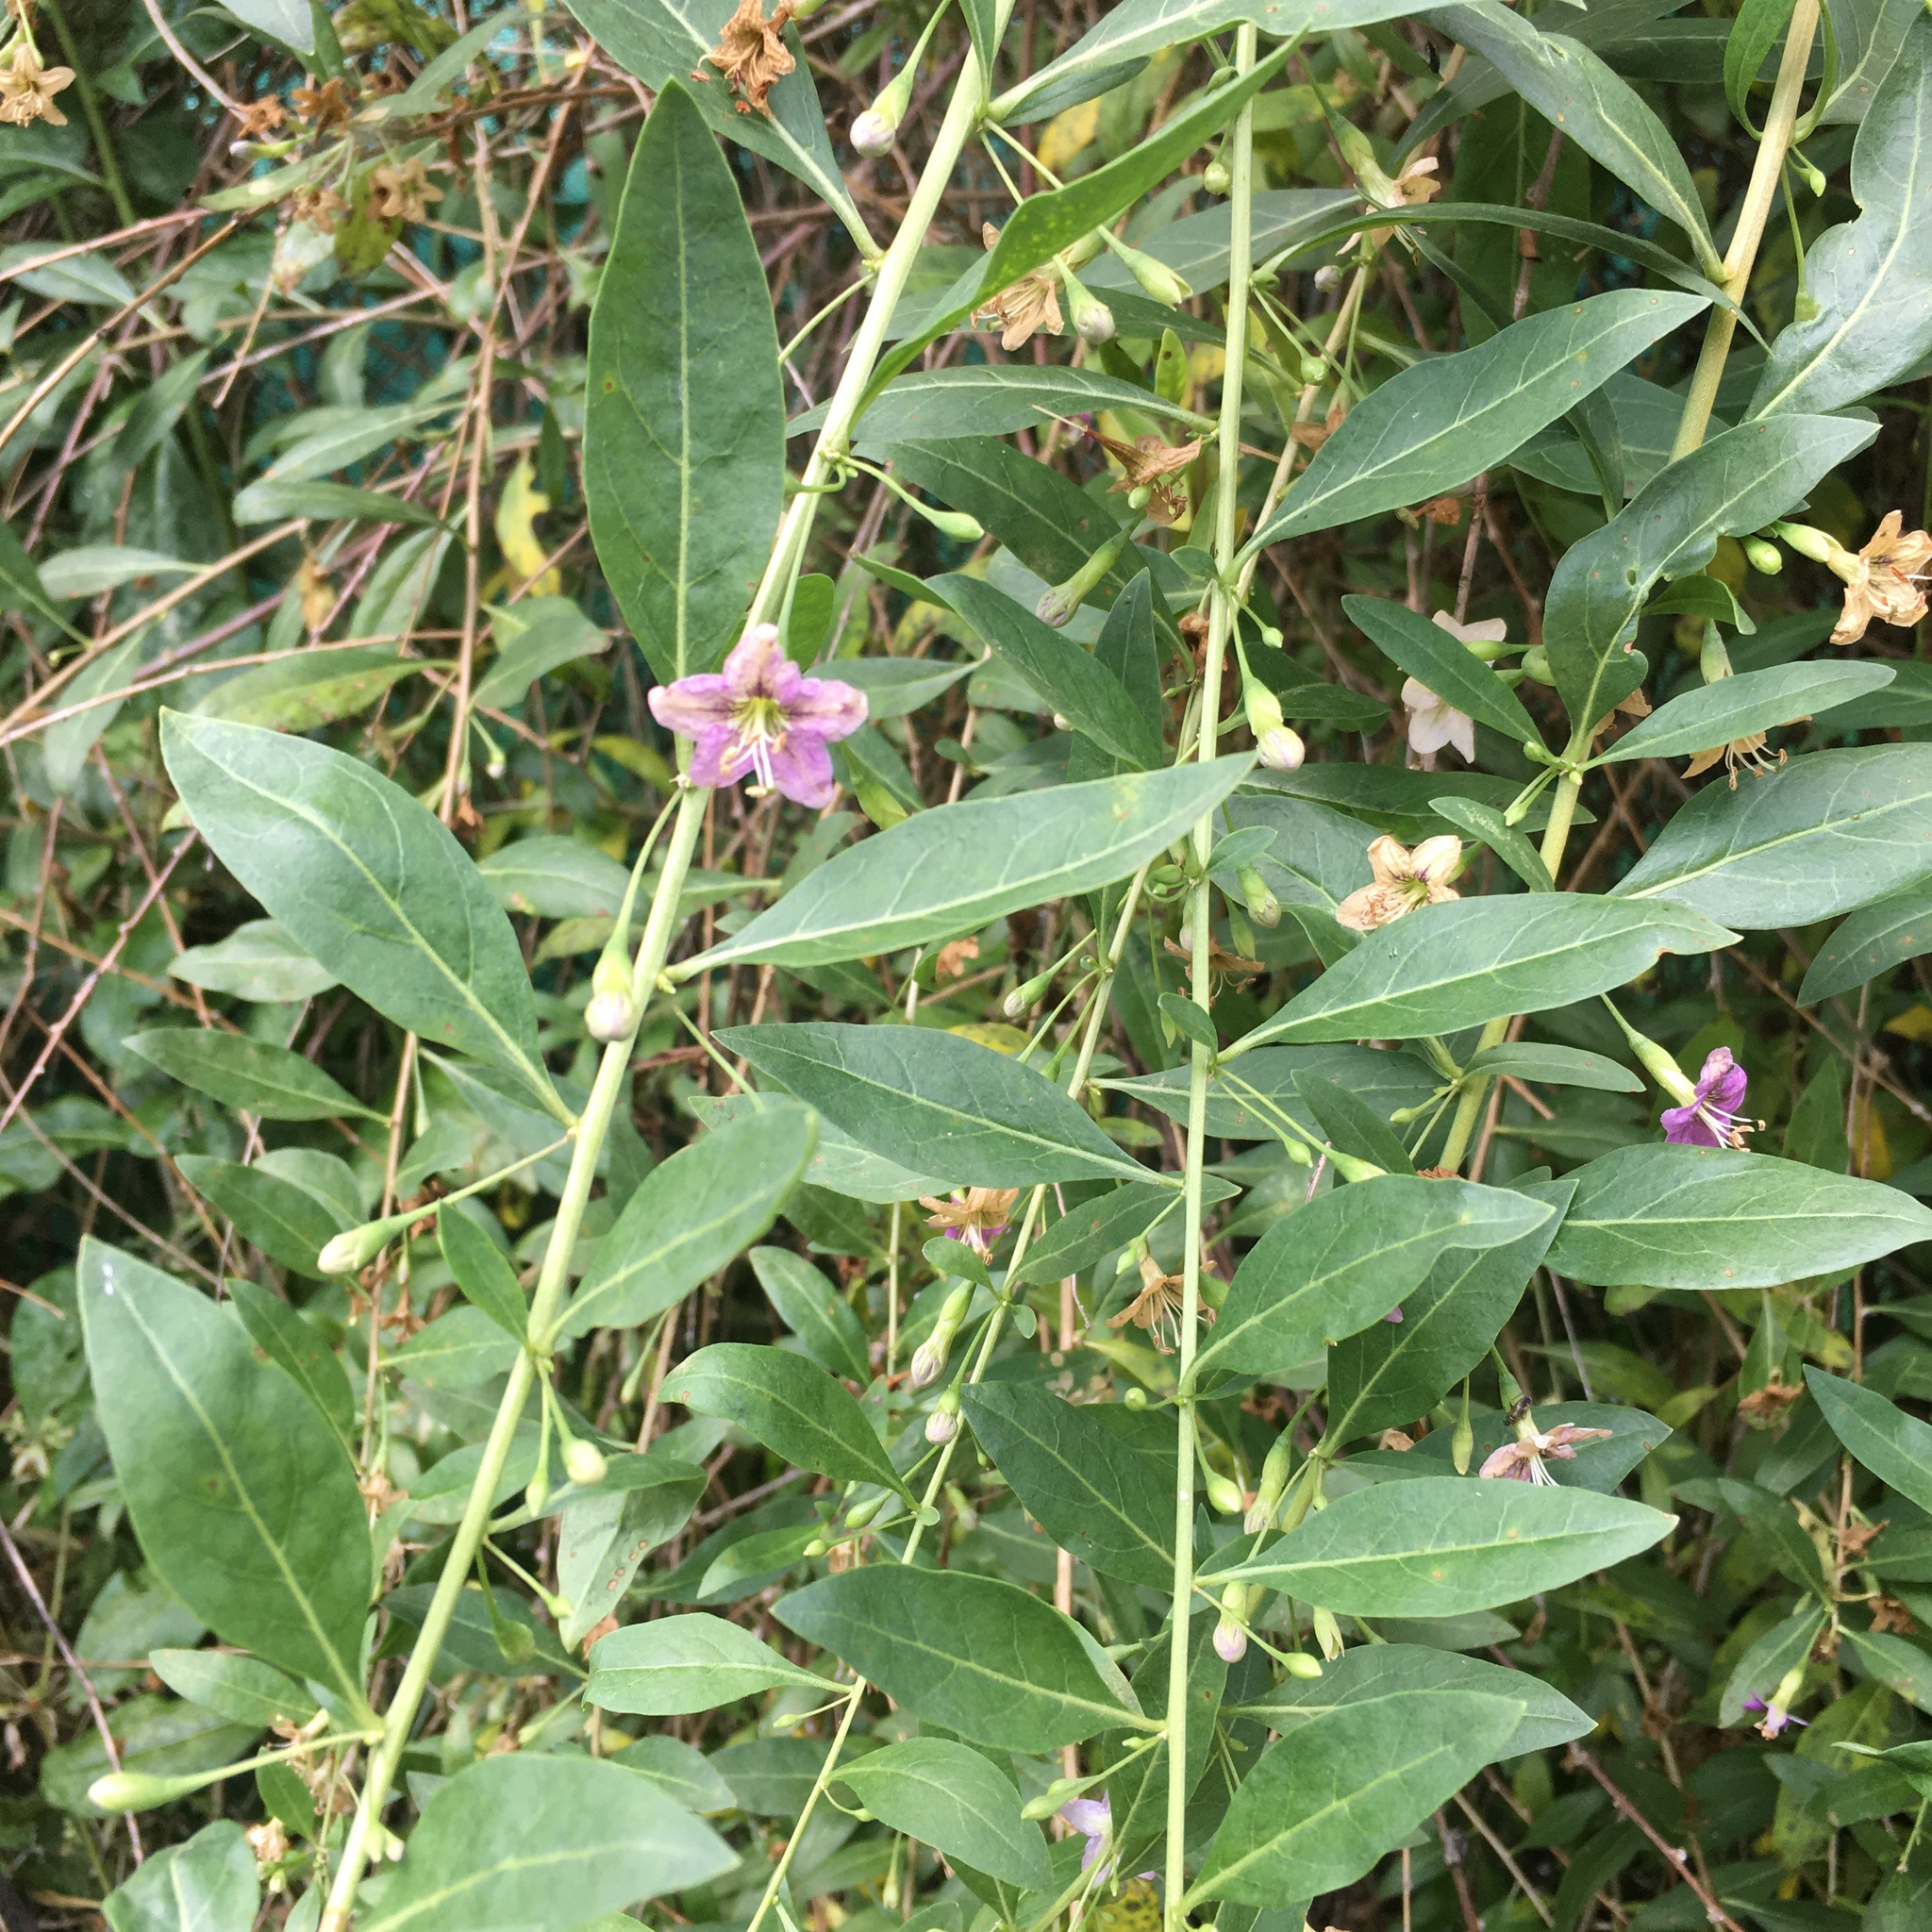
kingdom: Plantae
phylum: Tracheophyta
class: Magnoliopsida
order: Solanales
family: Solanaceae
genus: Lycium
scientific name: Lycium barbarum
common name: Duke of argyll's teaplant
